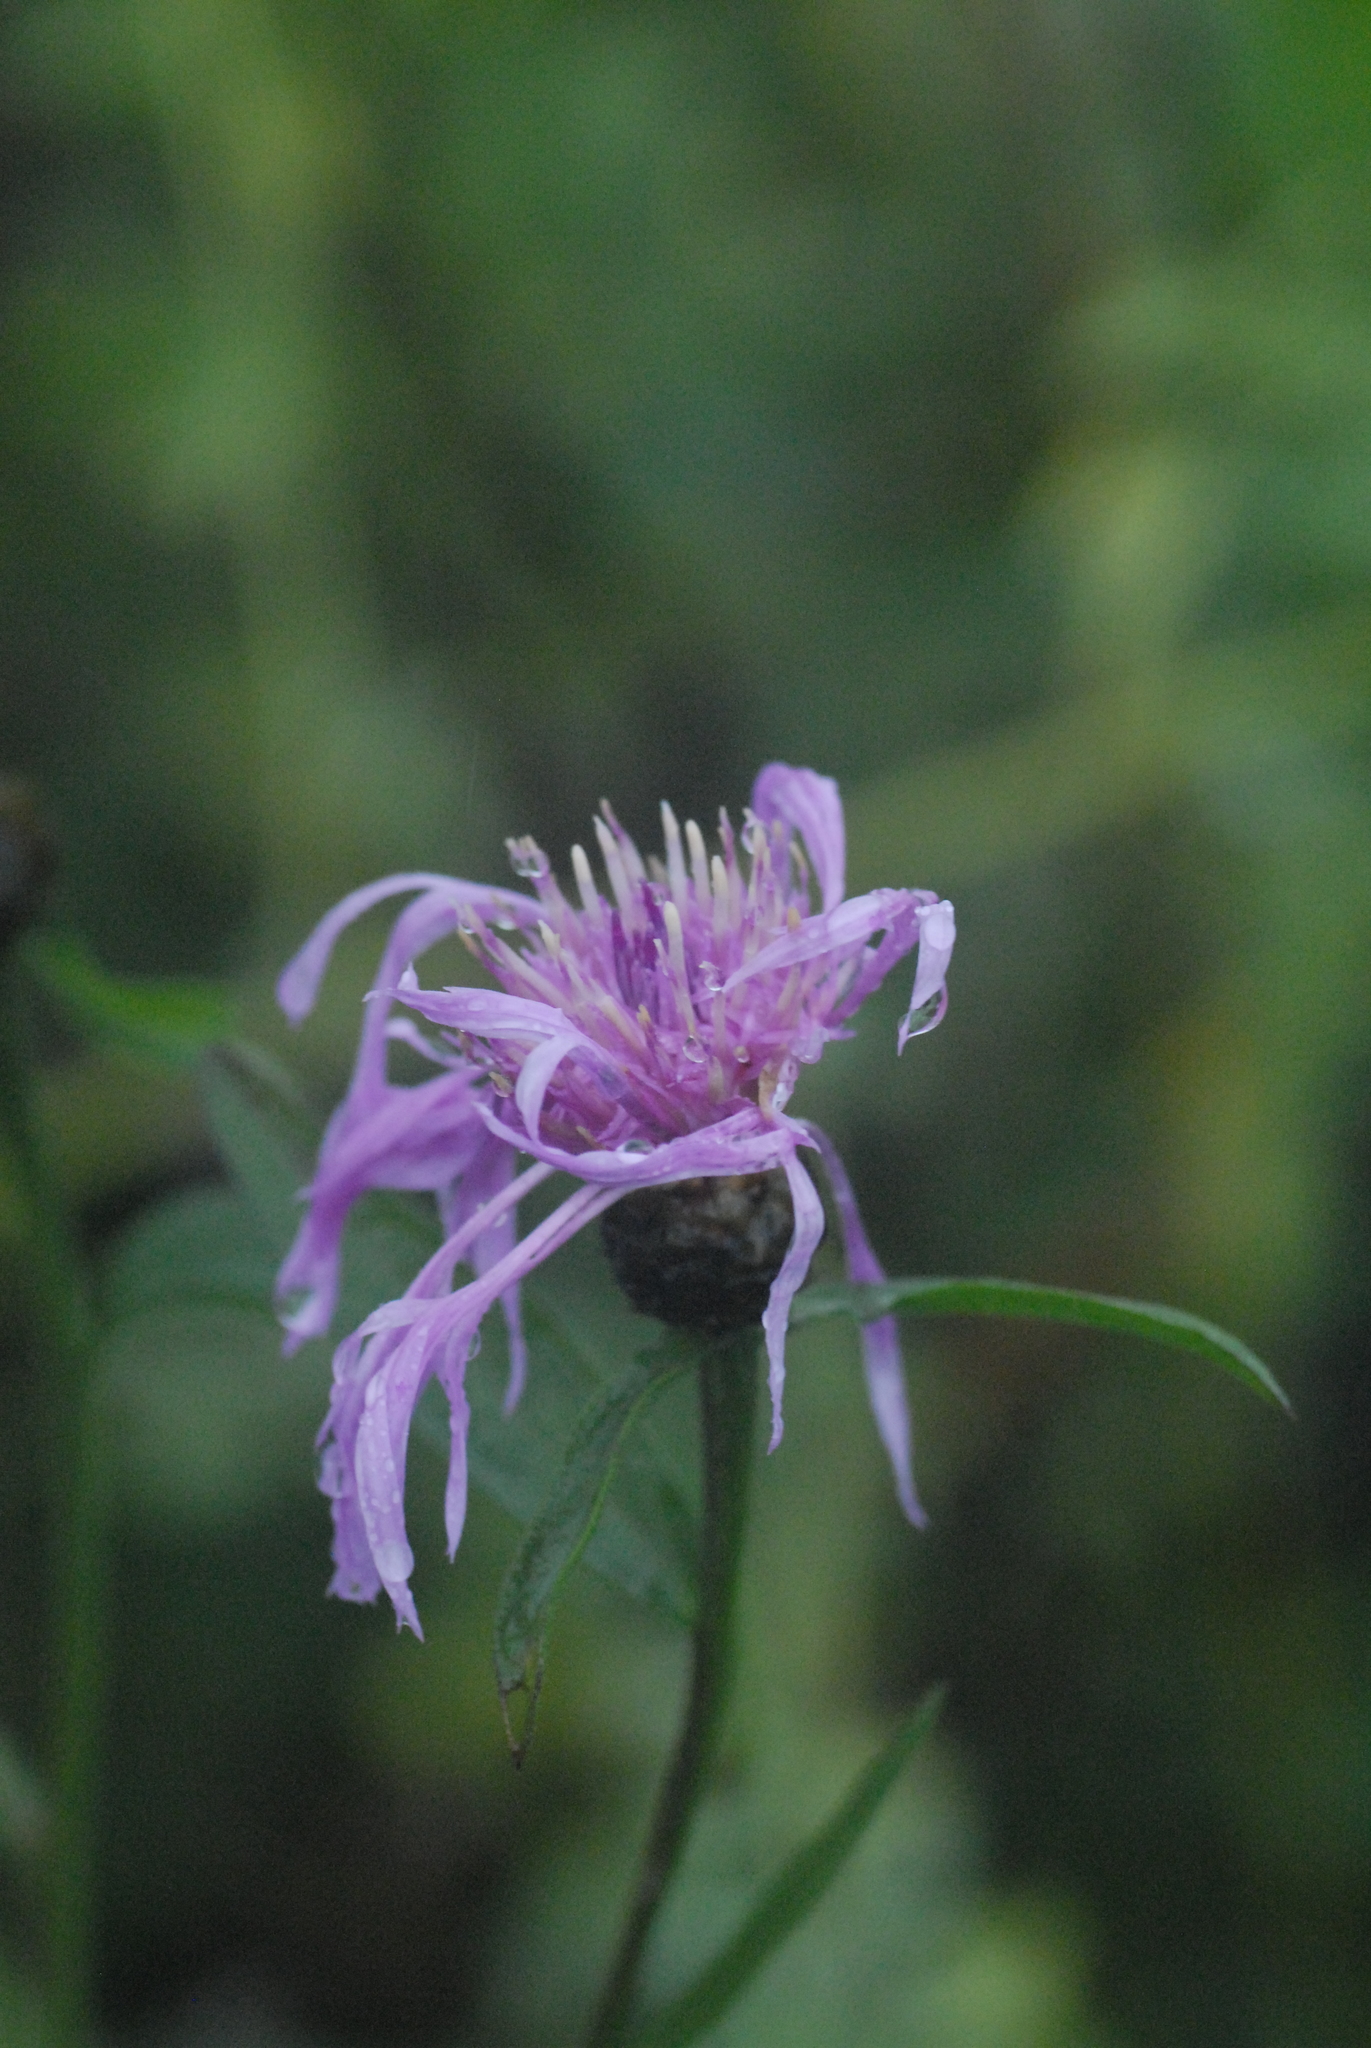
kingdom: Plantae
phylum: Tracheophyta
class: Magnoliopsida
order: Asterales
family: Asteraceae
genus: Centaurea
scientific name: Centaurea jacea
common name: Brown knapweed
